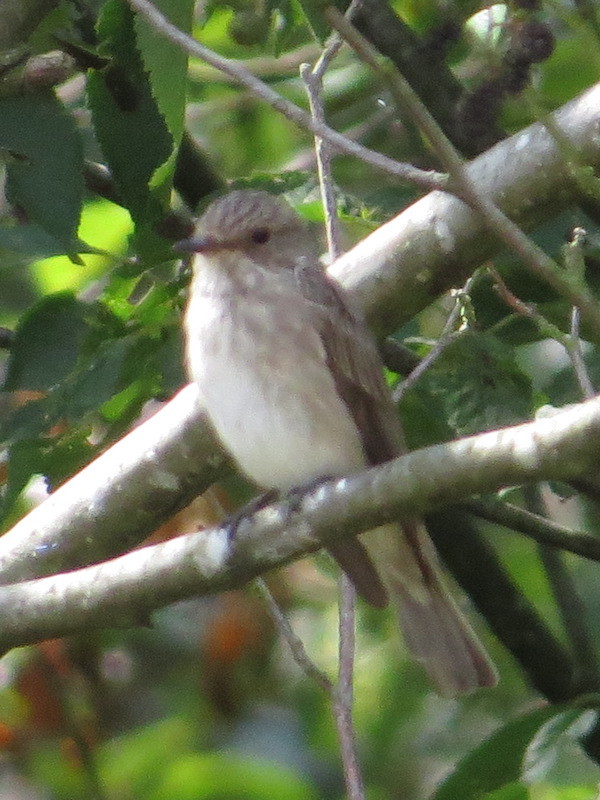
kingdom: Animalia
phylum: Chordata
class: Aves
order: Passeriformes
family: Muscicapidae
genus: Muscicapa
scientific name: Muscicapa striata
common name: Spotted flycatcher
